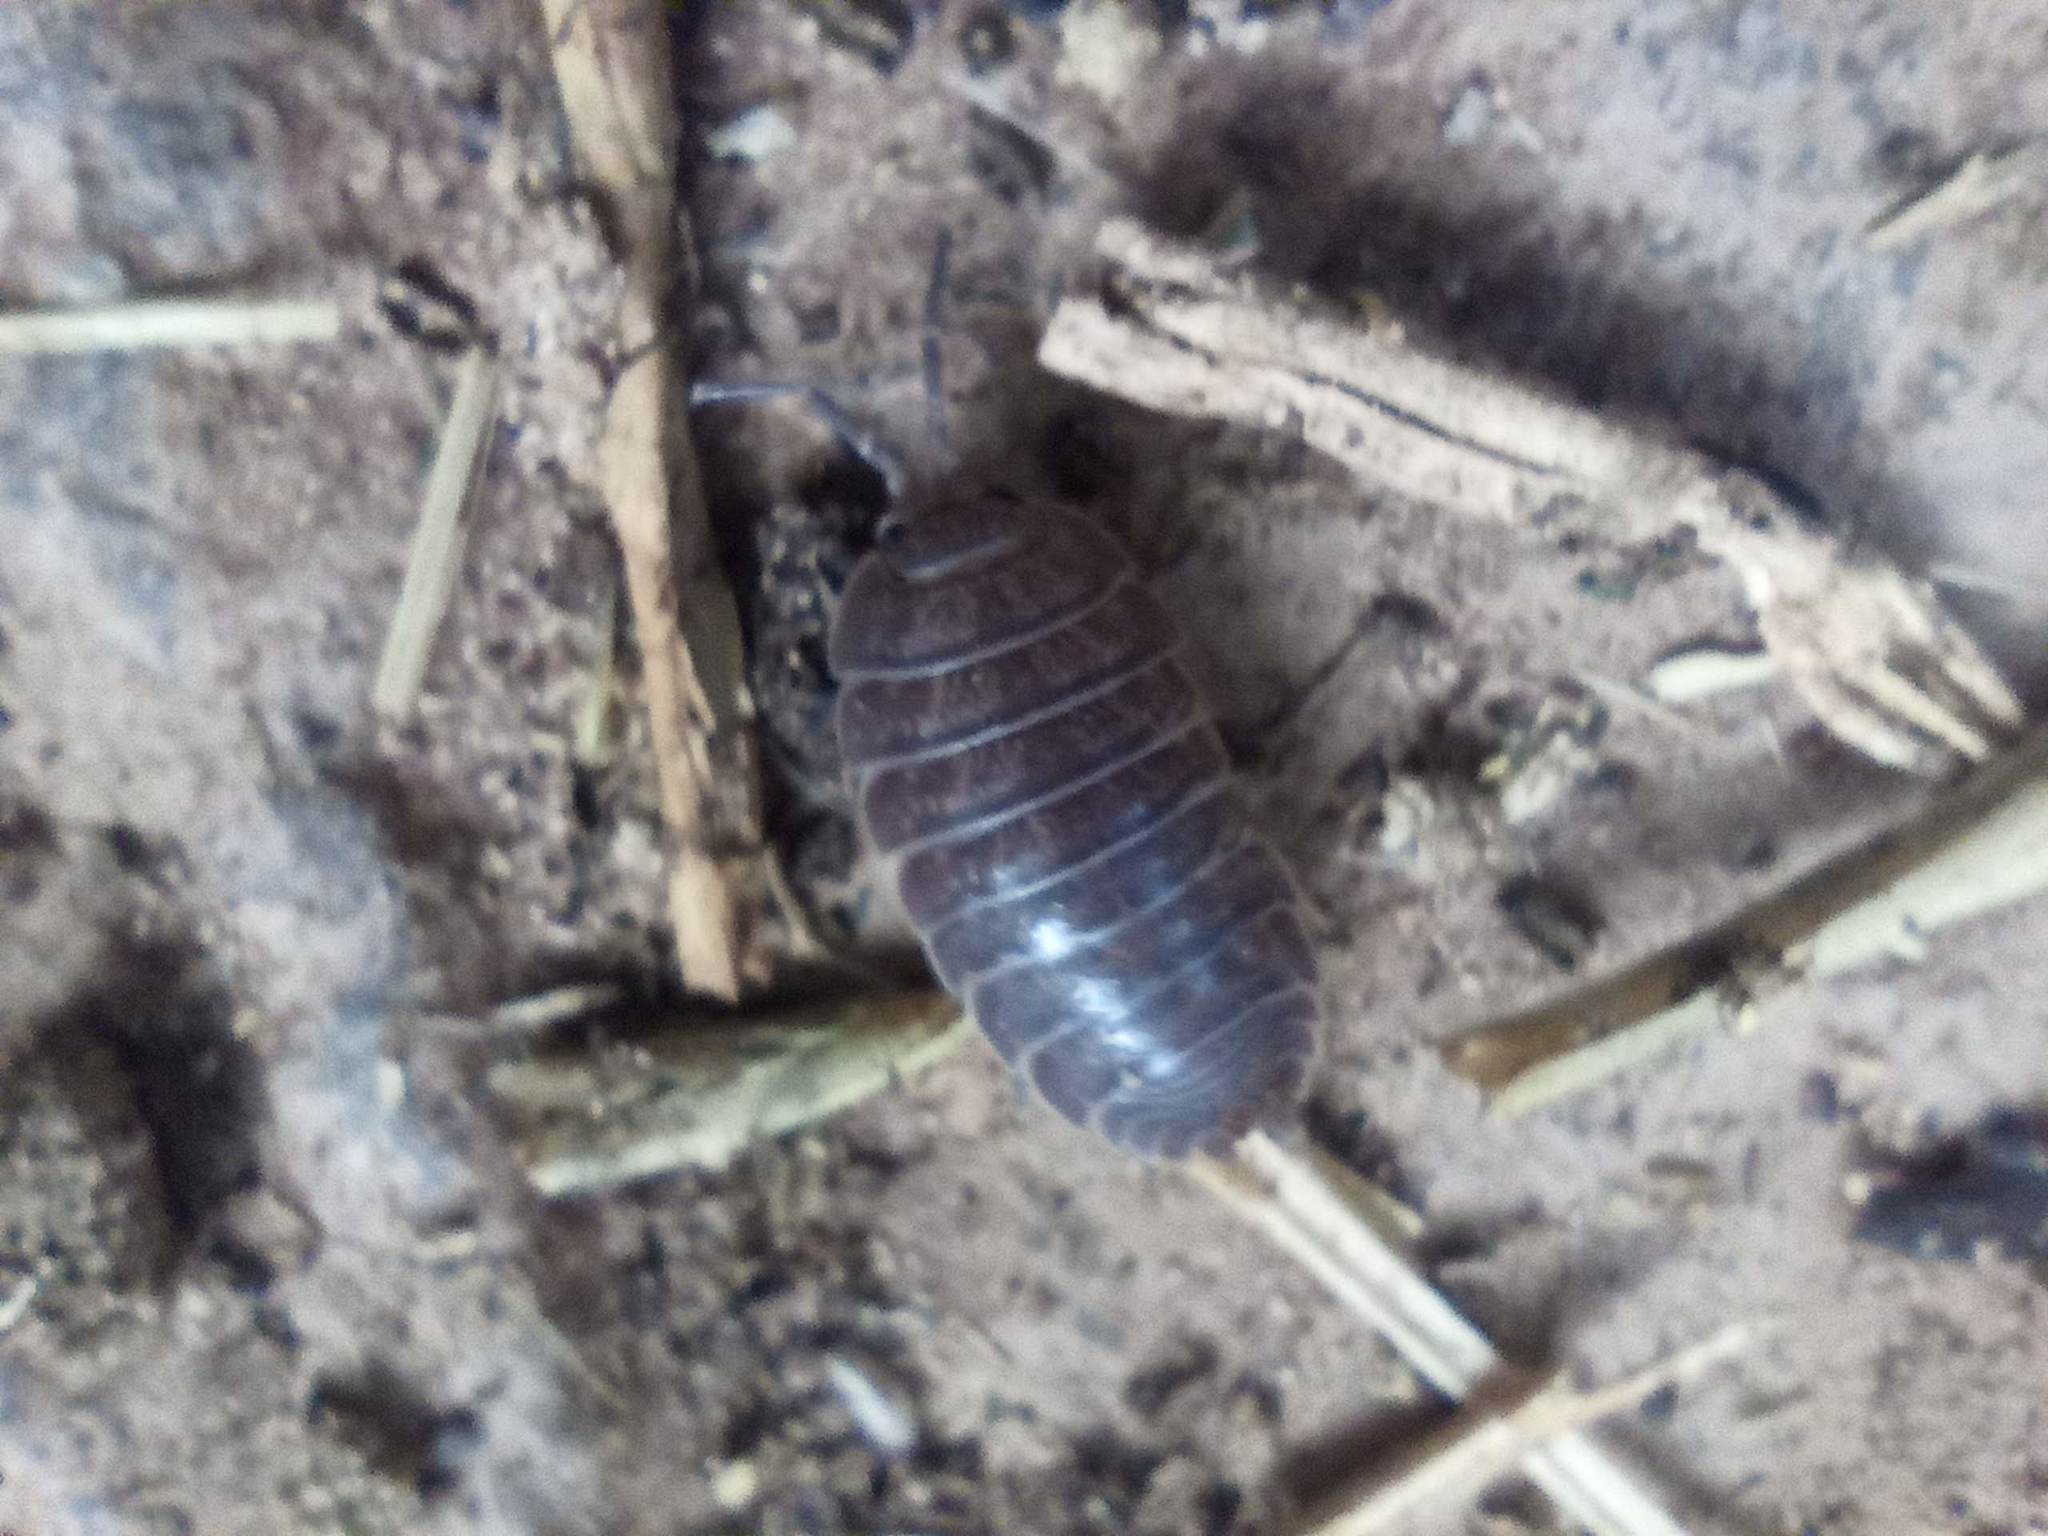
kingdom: Animalia
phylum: Arthropoda
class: Malacostraca
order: Isopoda
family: Porcellionidae
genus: Porcellio
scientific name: Porcellio laevis
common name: Swift woodlouse
